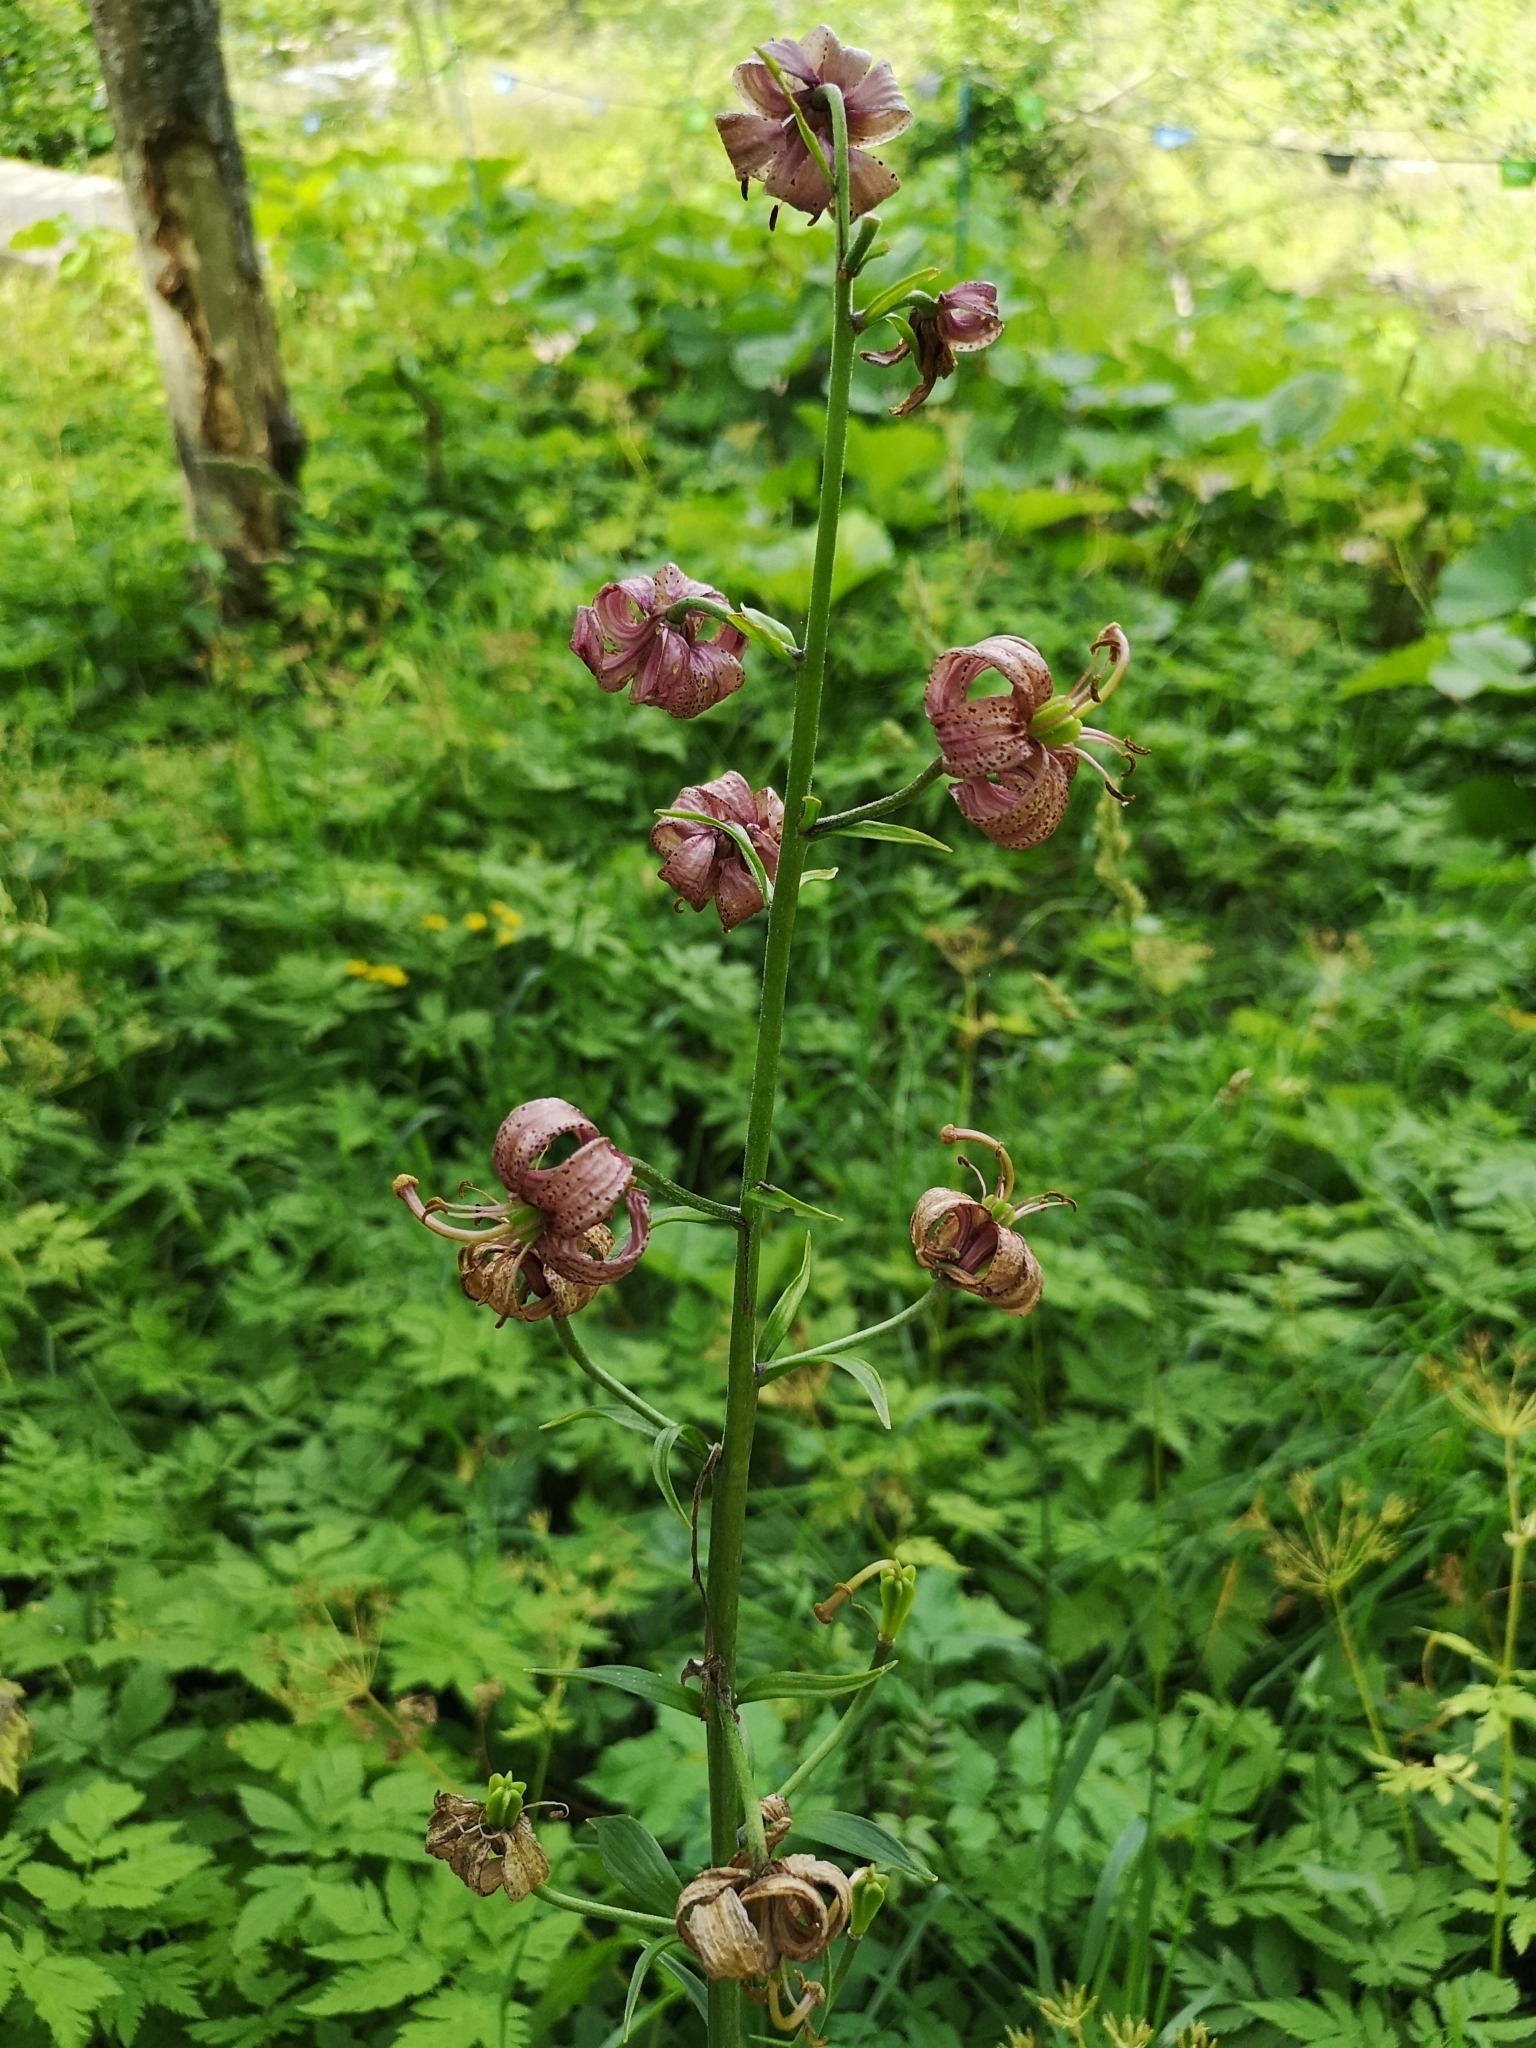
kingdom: Plantae
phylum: Tracheophyta
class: Liliopsida
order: Liliales
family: Liliaceae
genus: Lilium
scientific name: Lilium martagon
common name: Martagon lily
